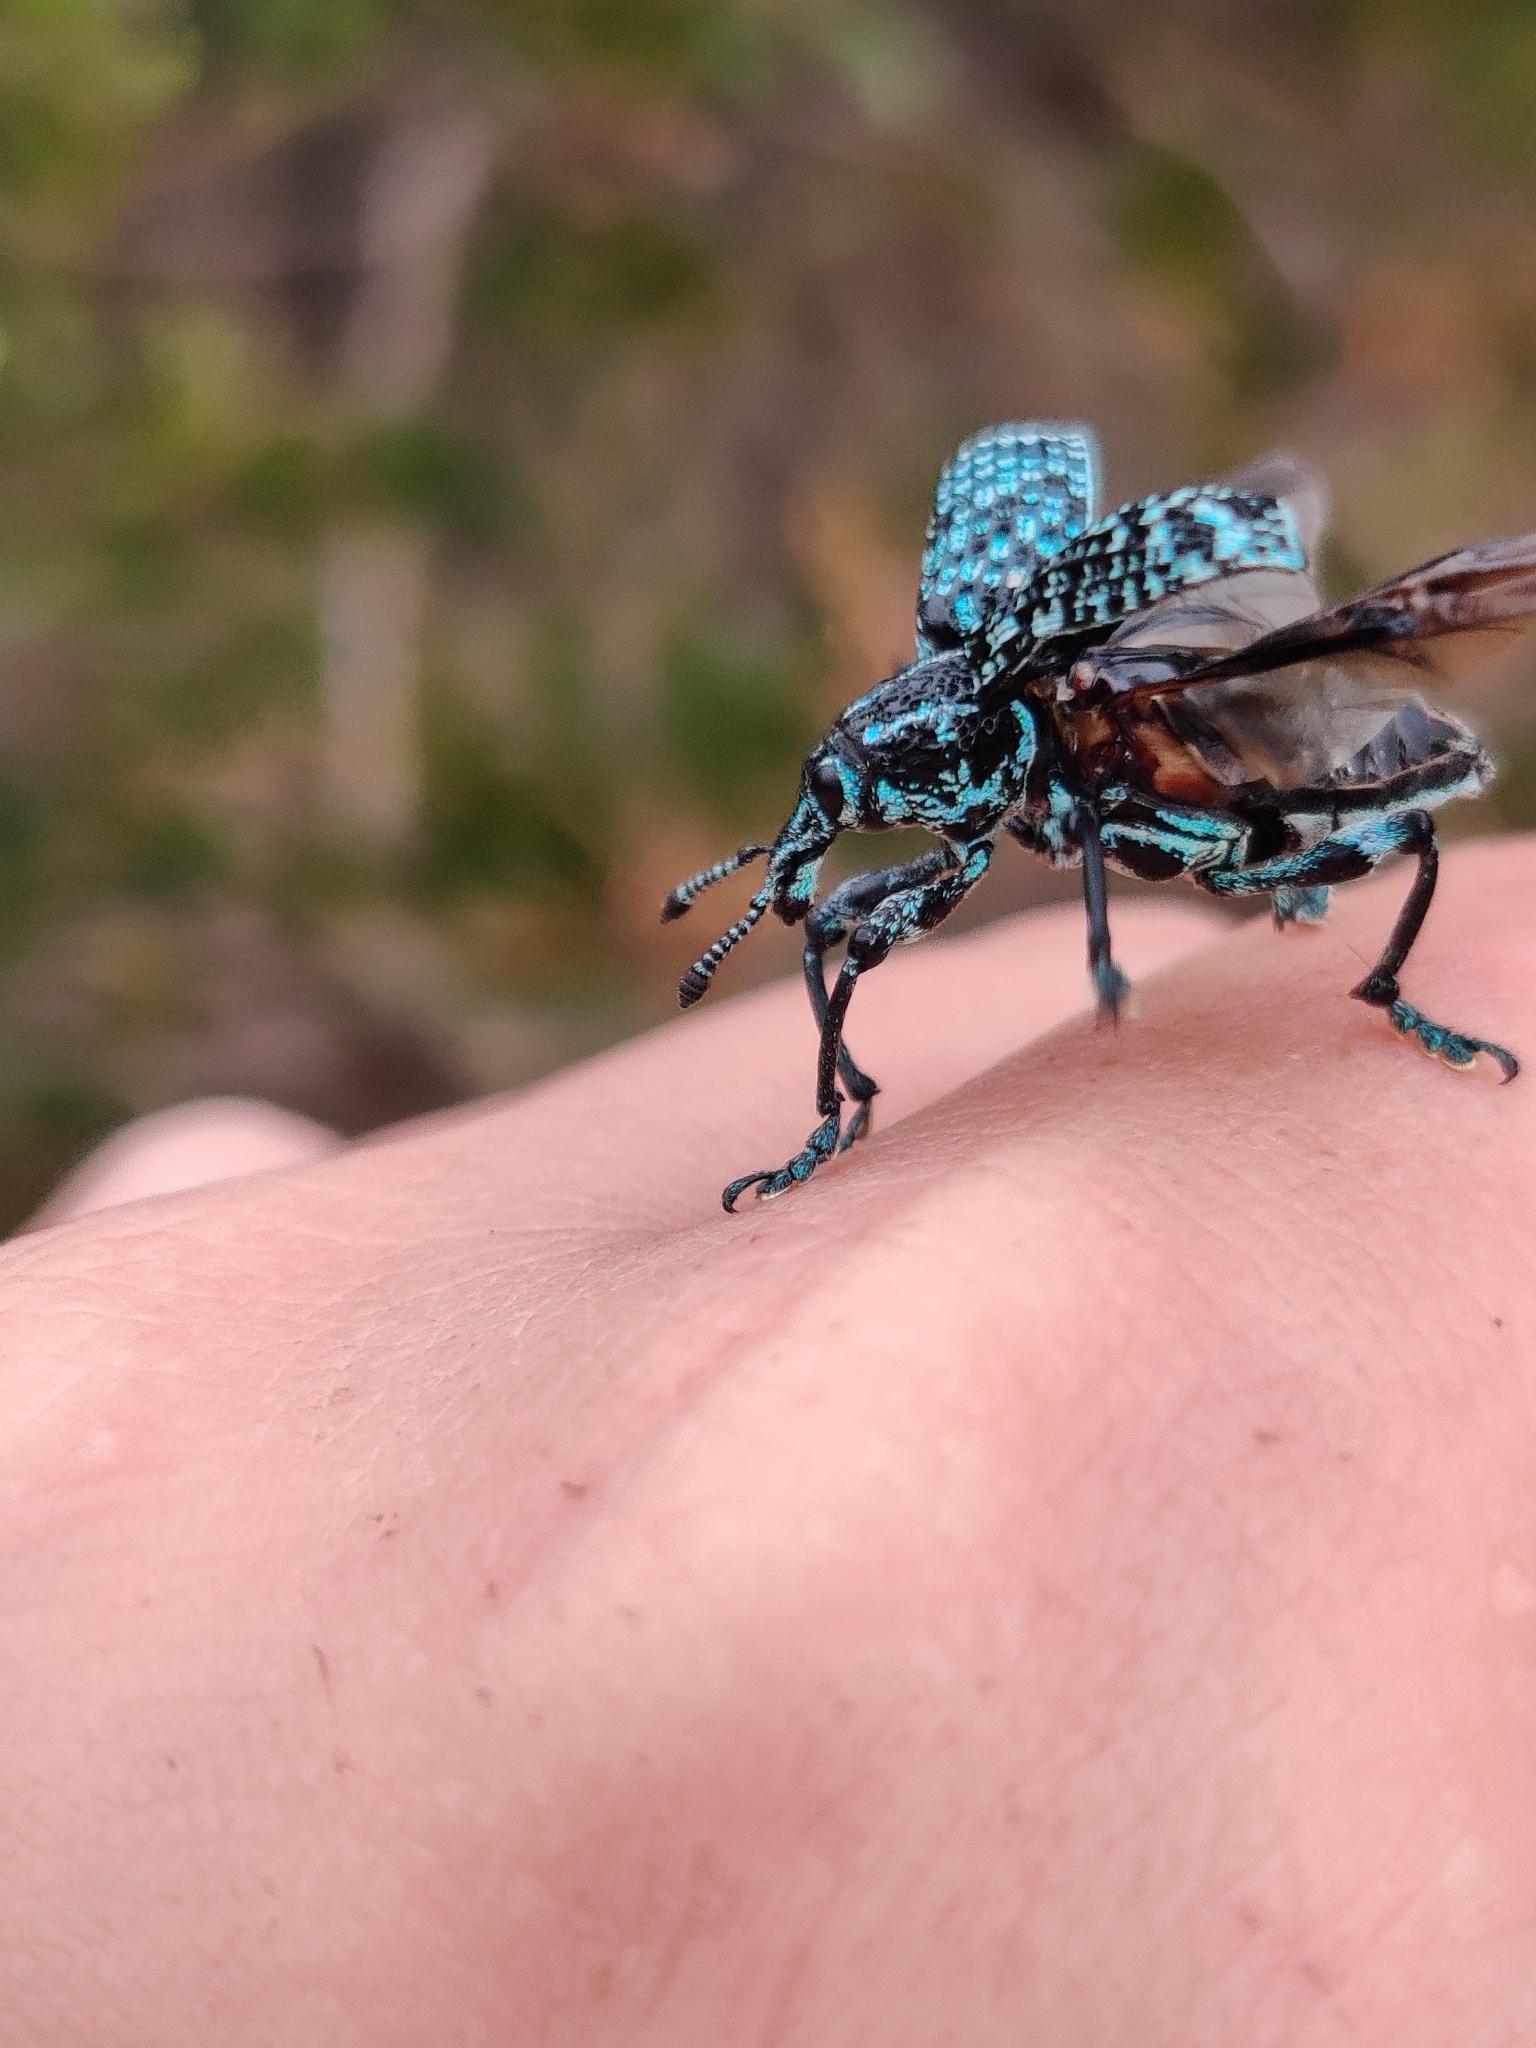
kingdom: Animalia
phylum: Arthropoda
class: Insecta
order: Coleoptera
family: Curculionidae
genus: Chrysolopus
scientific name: Chrysolopus spectabilis
